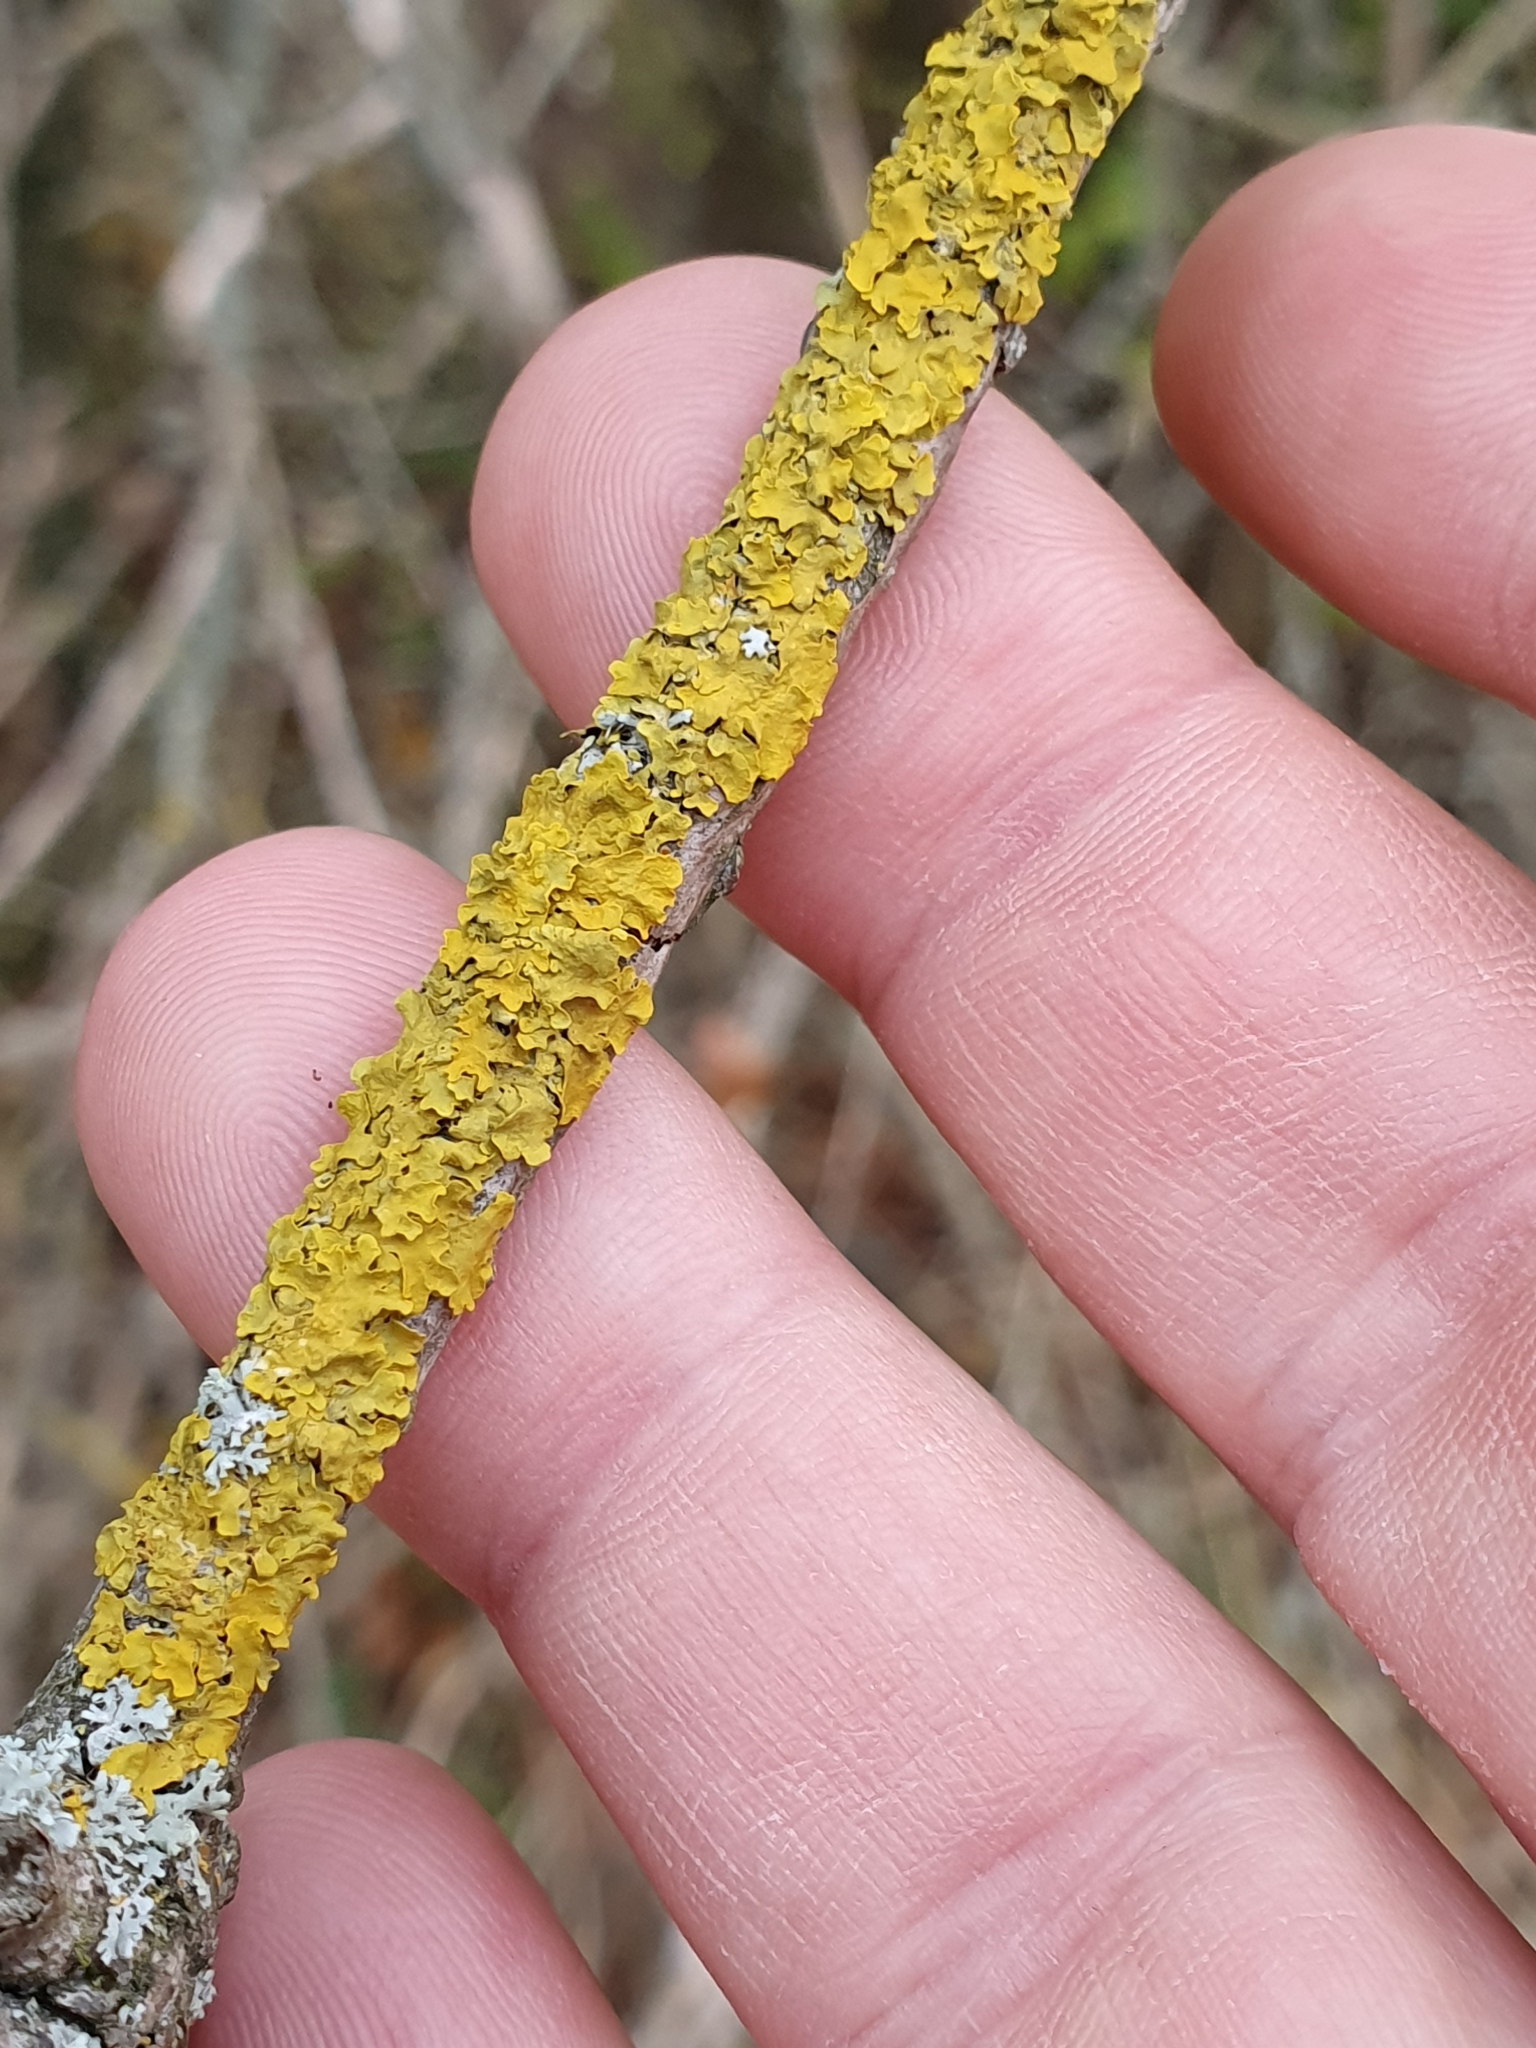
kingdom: Fungi
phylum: Ascomycota
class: Lecanoromycetes
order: Teloschistales
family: Teloschistaceae
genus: Xanthoria
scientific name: Xanthoria parietina
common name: Common orange lichen
